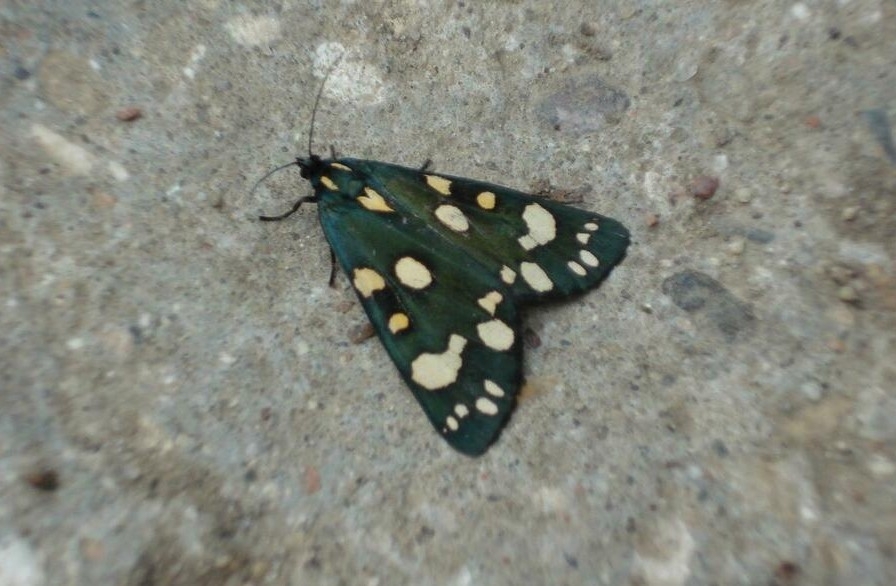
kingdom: Animalia
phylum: Arthropoda
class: Insecta
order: Lepidoptera
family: Erebidae
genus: Callimorpha
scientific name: Callimorpha dominula
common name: Scarlet tiger
